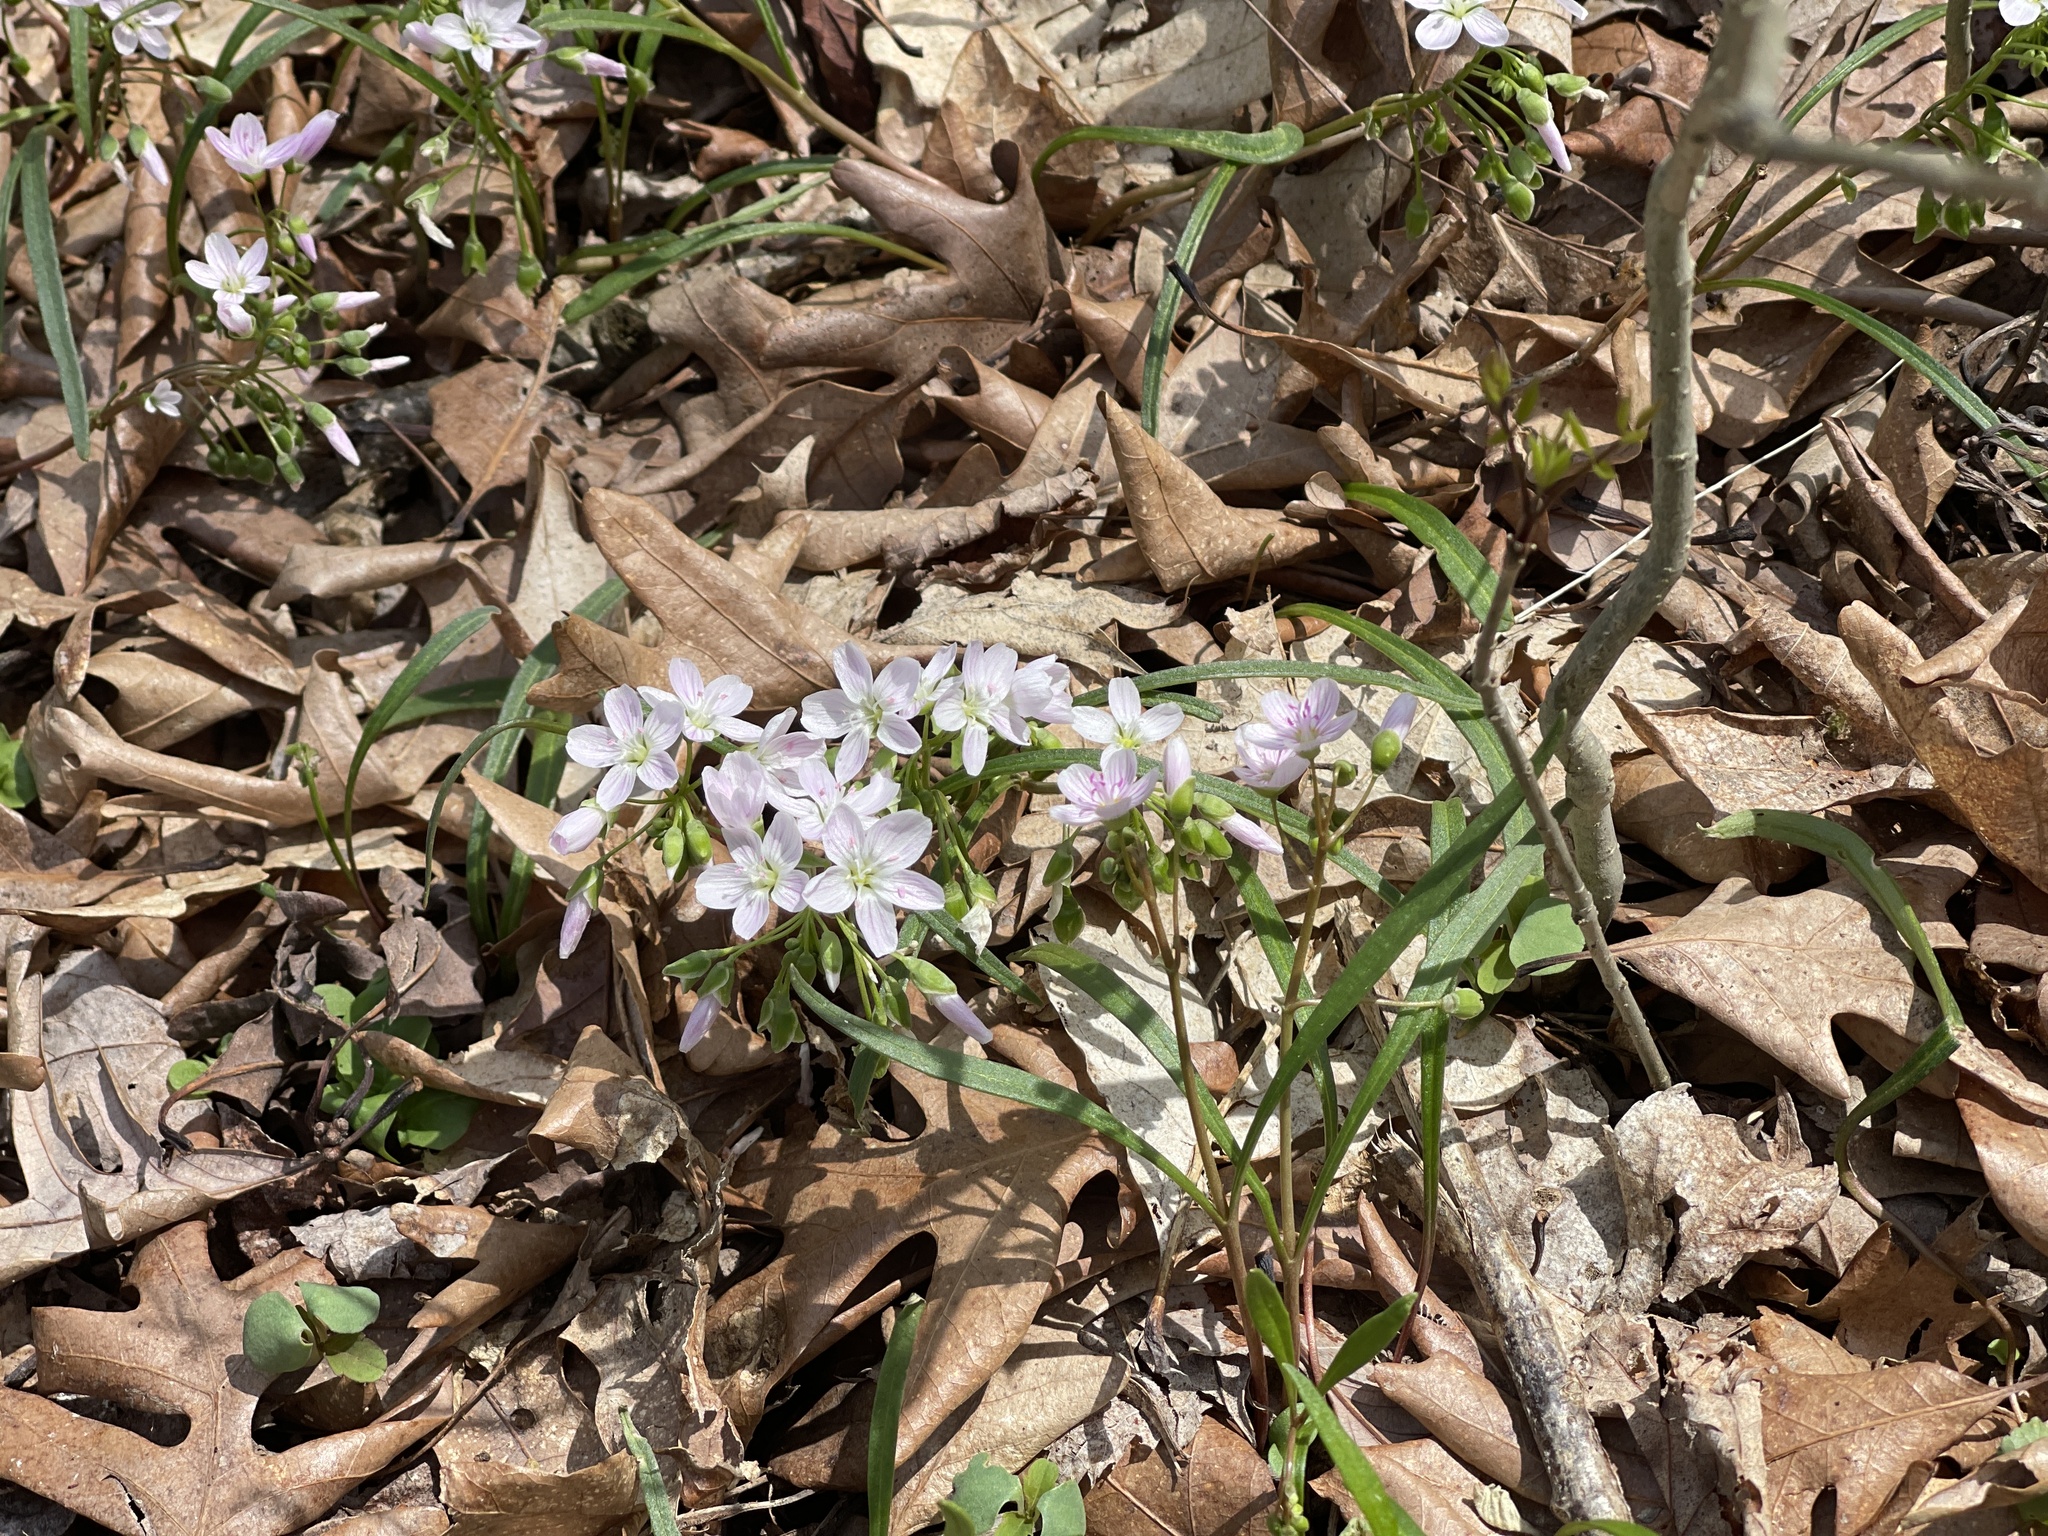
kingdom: Plantae
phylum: Tracheophyta
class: Magnoliopsida
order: Caryophyllales
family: Montiaceae
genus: Claytonia
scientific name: Claytonia virginica
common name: Virginia springbeauty
